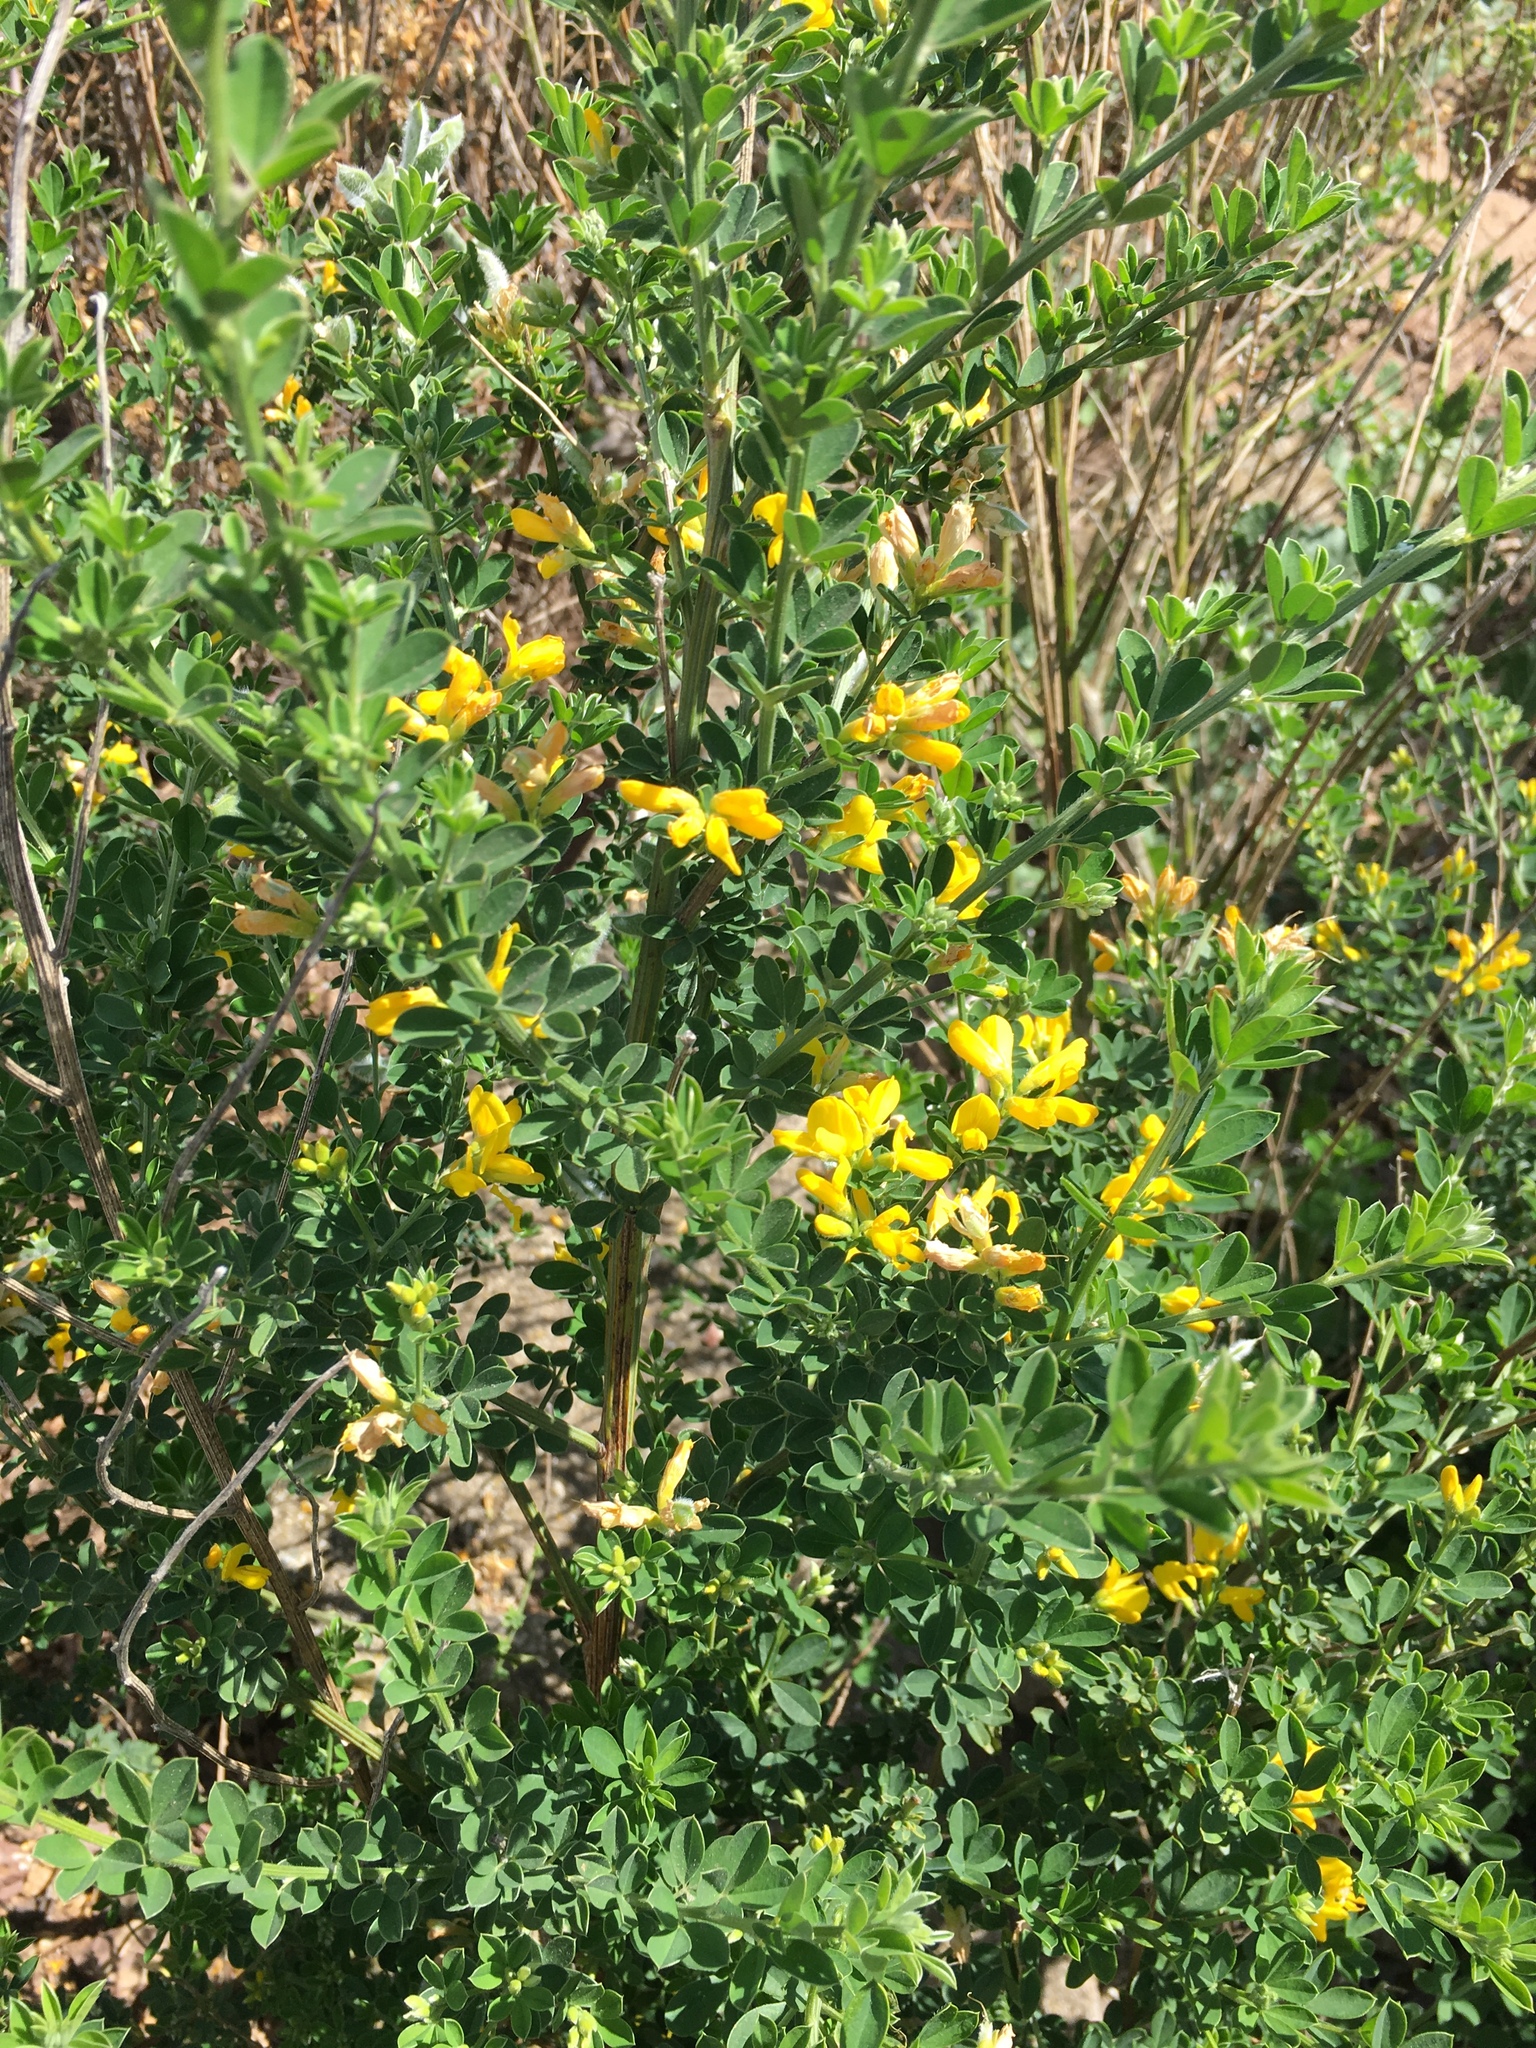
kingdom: Plantae
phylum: Tracheophyta
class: Magnoliopsida
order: Fabales
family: Fabaceae
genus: Genista
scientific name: Genista monspessulana
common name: Montpellier broom
